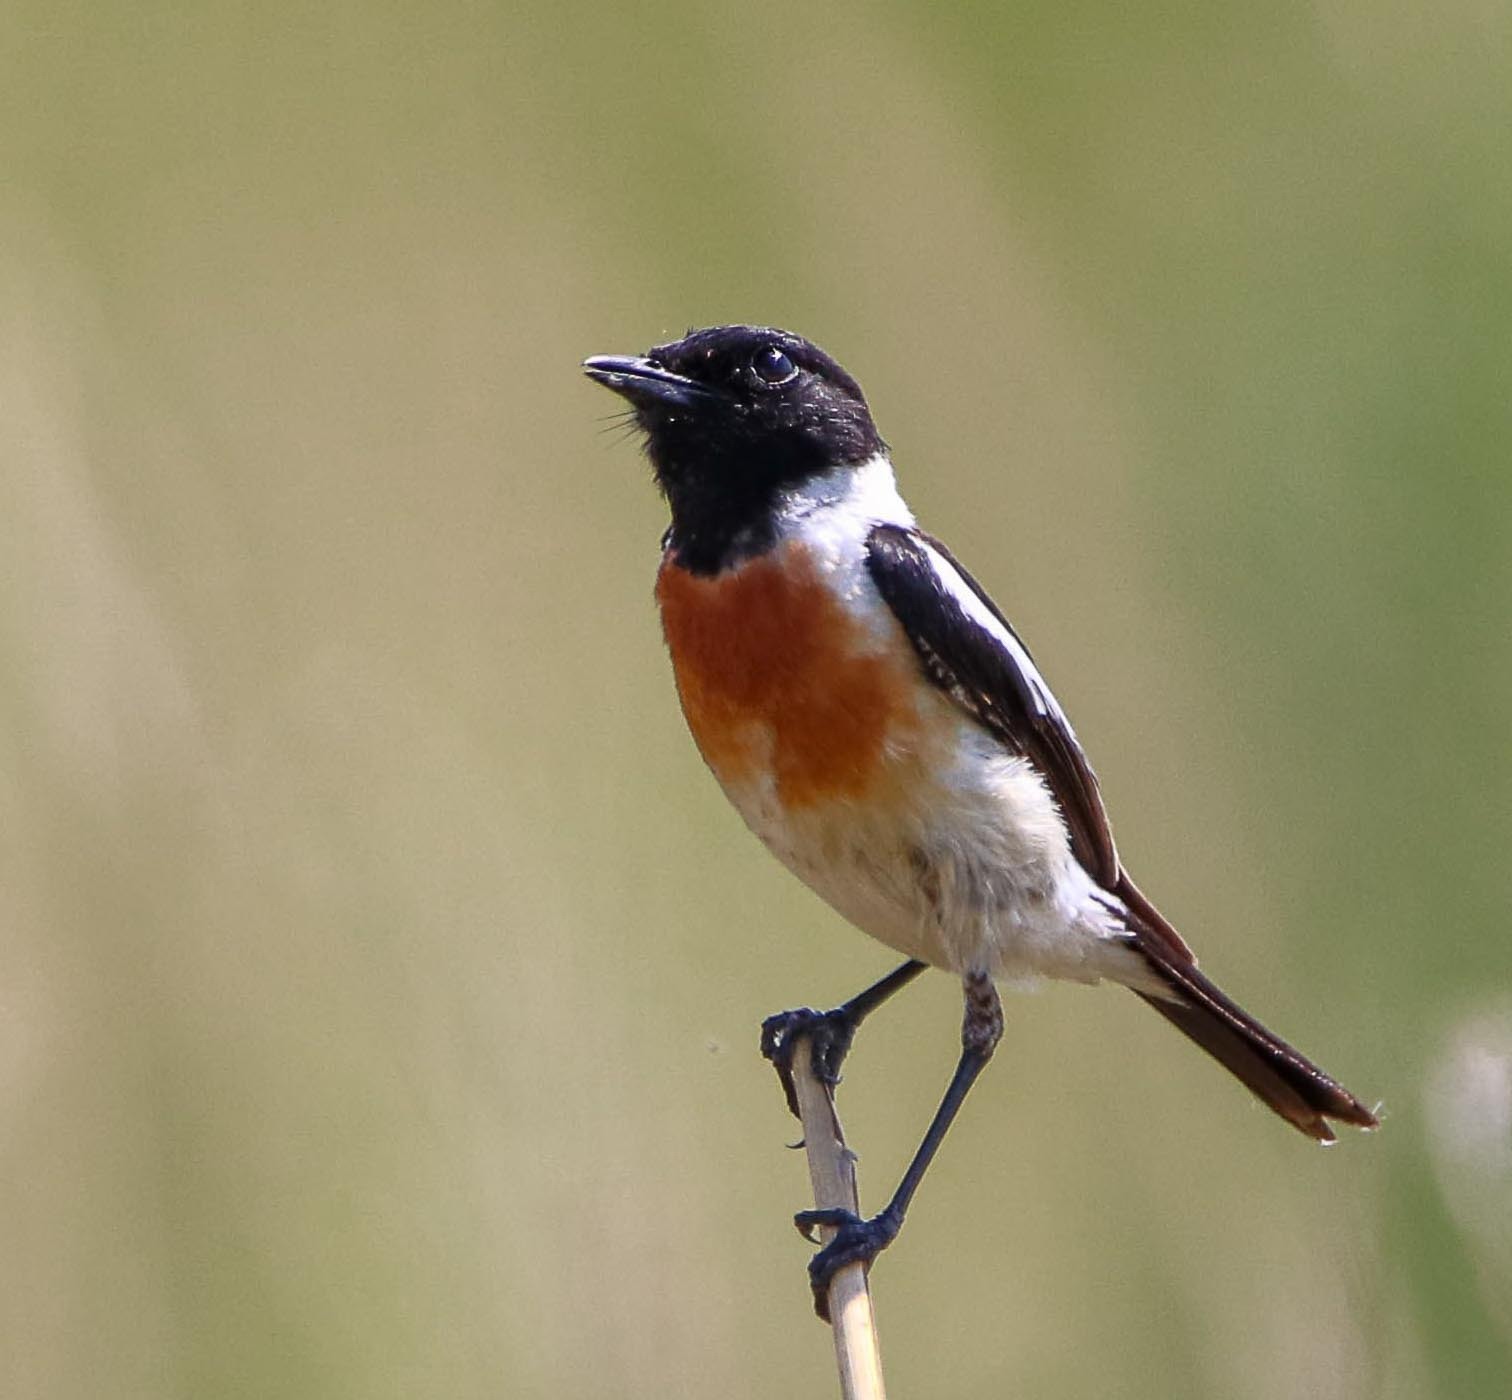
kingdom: Animalia
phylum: Chordata
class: Aves
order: Passeriformes
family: Muscicapidae
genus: Saxicola
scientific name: Saxicola maurus
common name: Siberian stonechat
